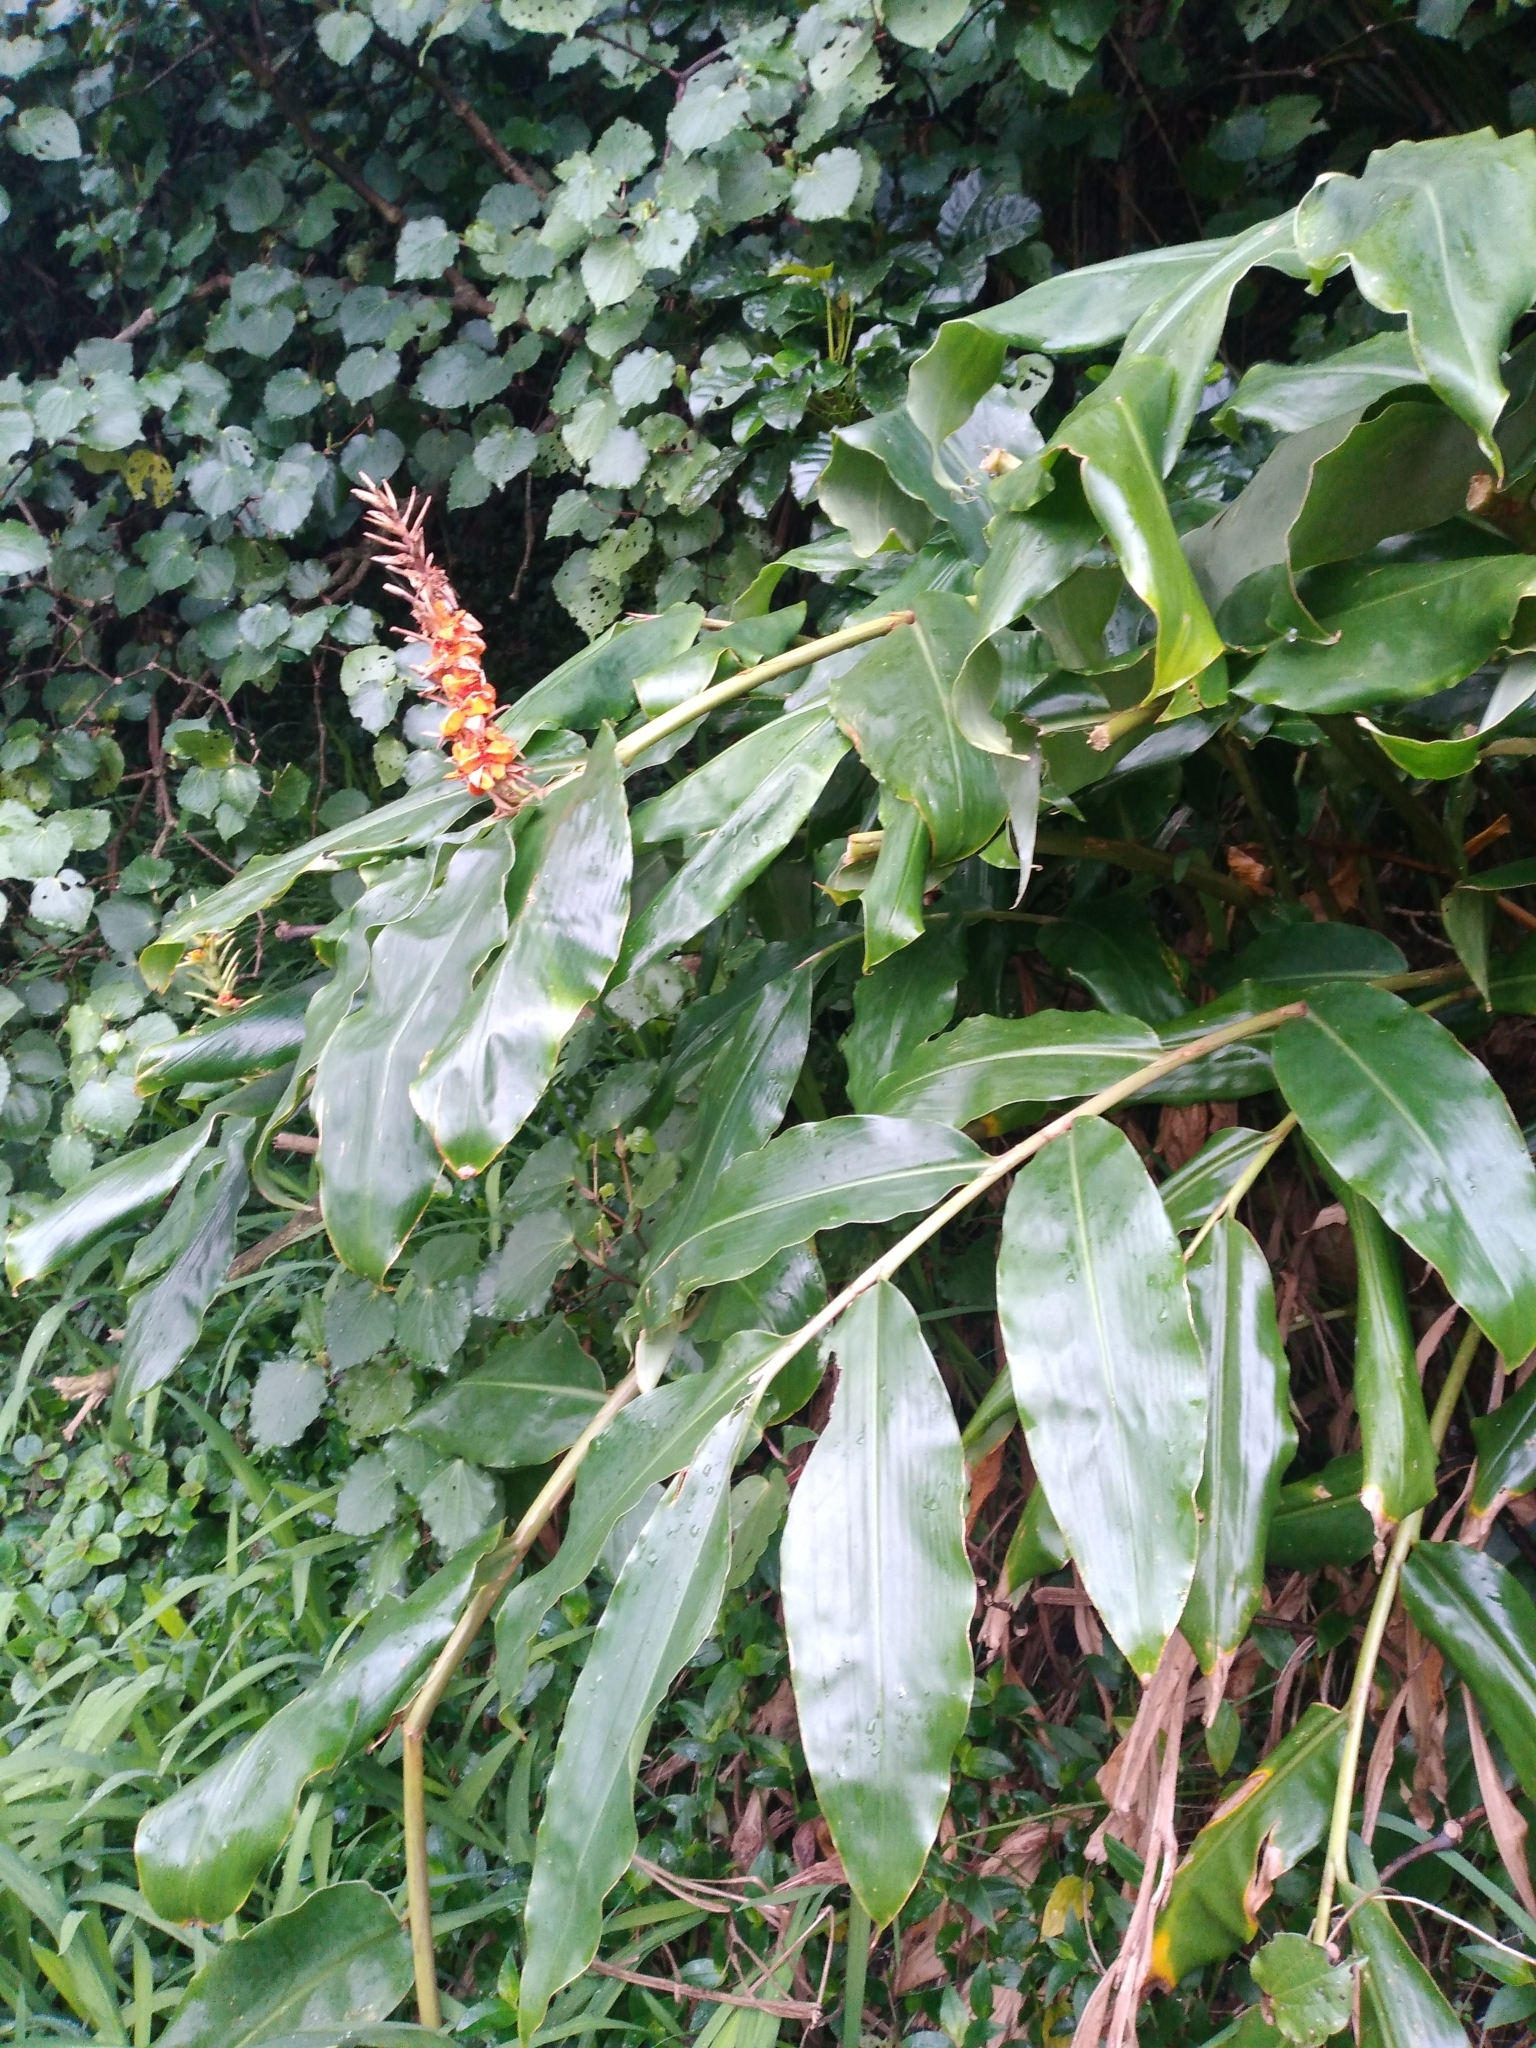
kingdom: Plantae
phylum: Tracheophyta
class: Liliopsida
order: Zingiberales
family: Zingiberaceae
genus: Hedychium
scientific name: Hedychium gardnerianum
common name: Himalayan ginger
